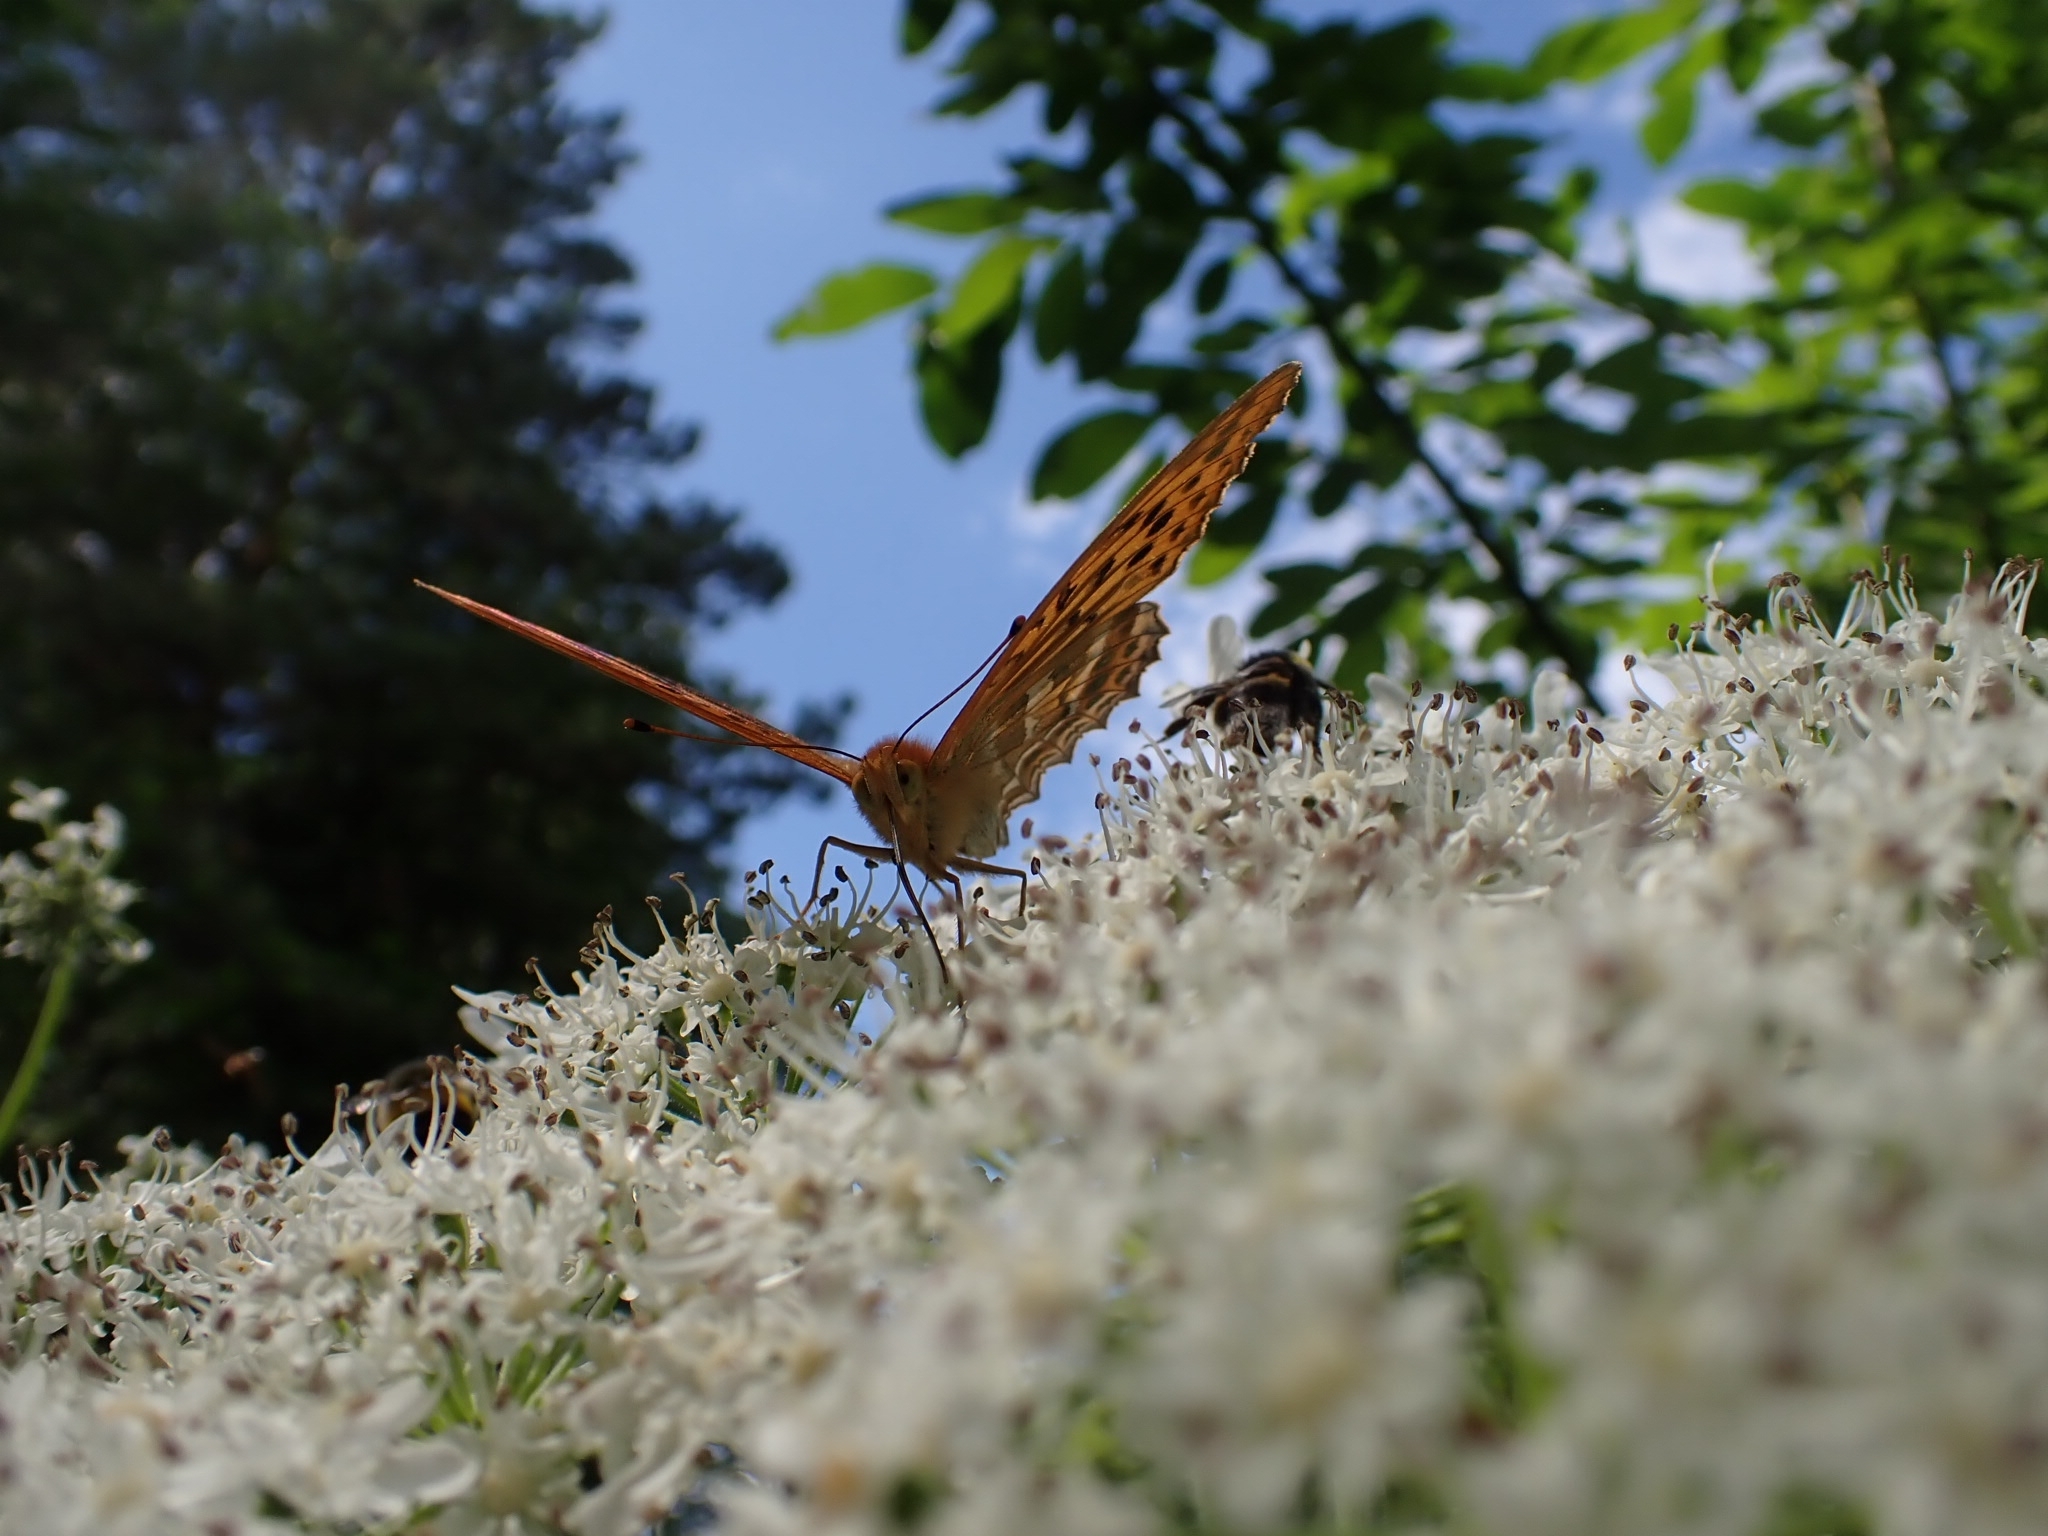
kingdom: Animalia
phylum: Arthropoda
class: Insecta
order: Lepidoptera
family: Nymphalidae
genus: Argynnis
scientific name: Argynnis paphia
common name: Silver-washed fritillary
